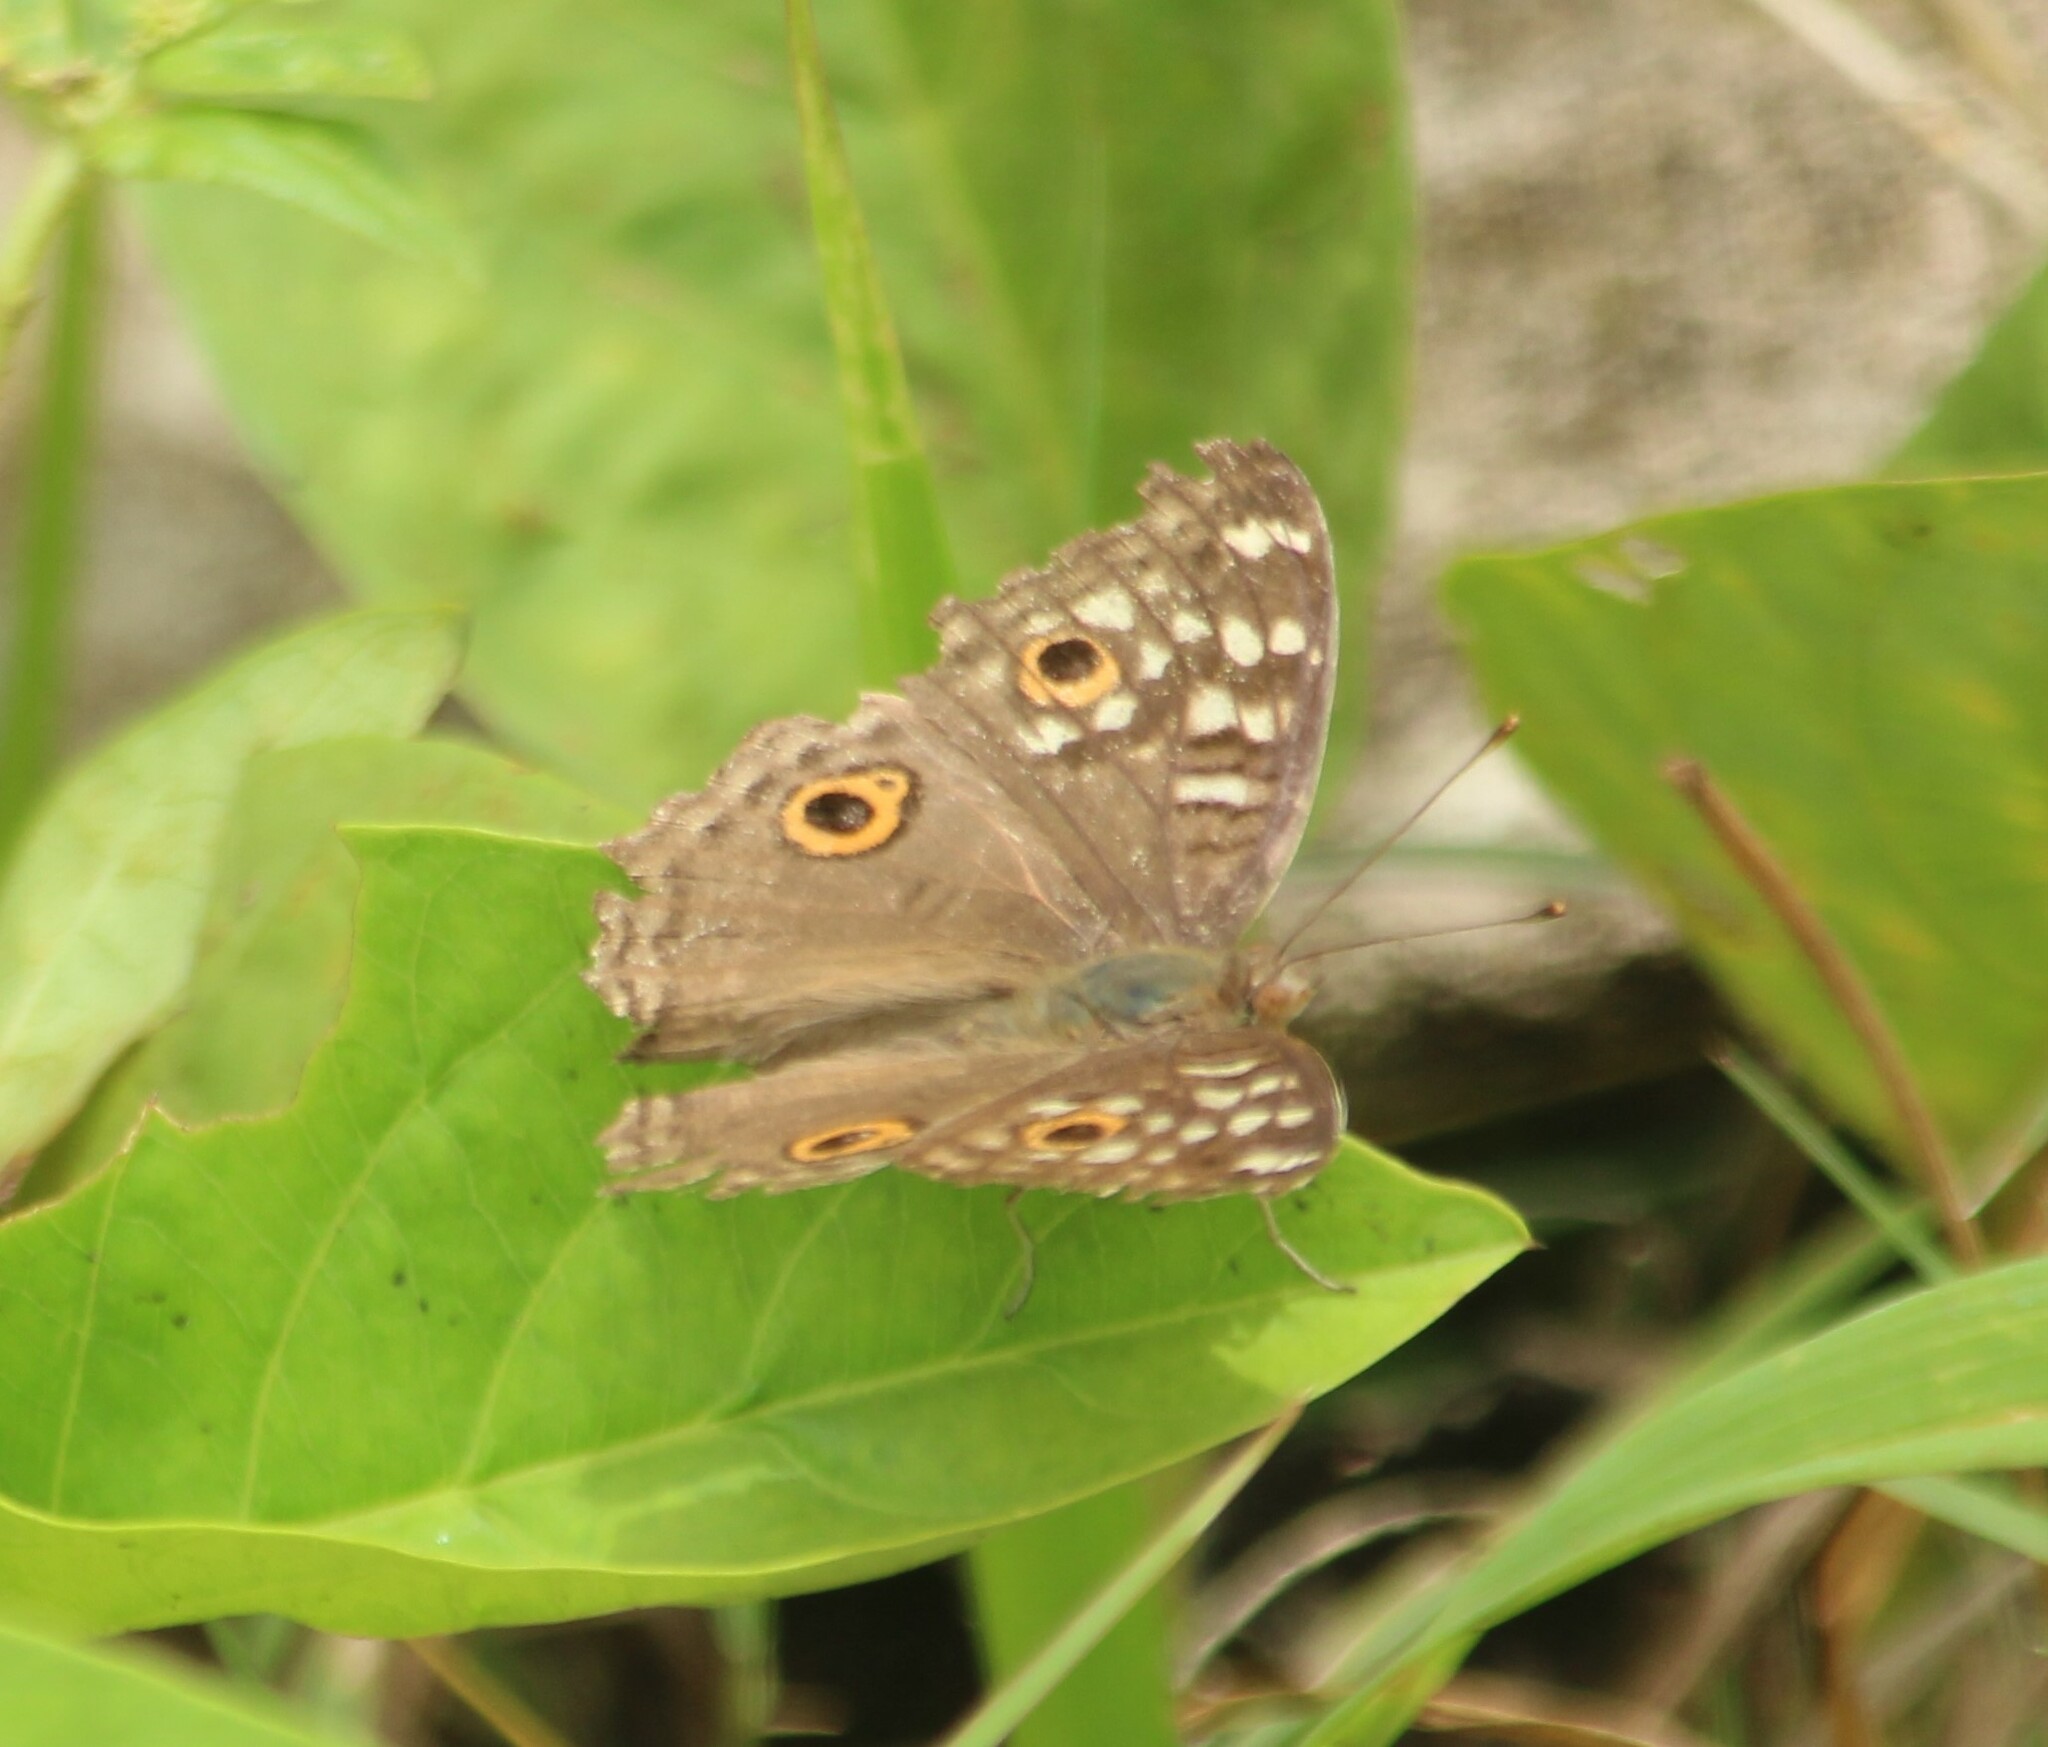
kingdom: Animalia
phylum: Arthropoda
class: Insecta
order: Lepidoptera
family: Nymphalidae
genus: Junonia
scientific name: Junonia lemonias
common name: Lemon pansy
